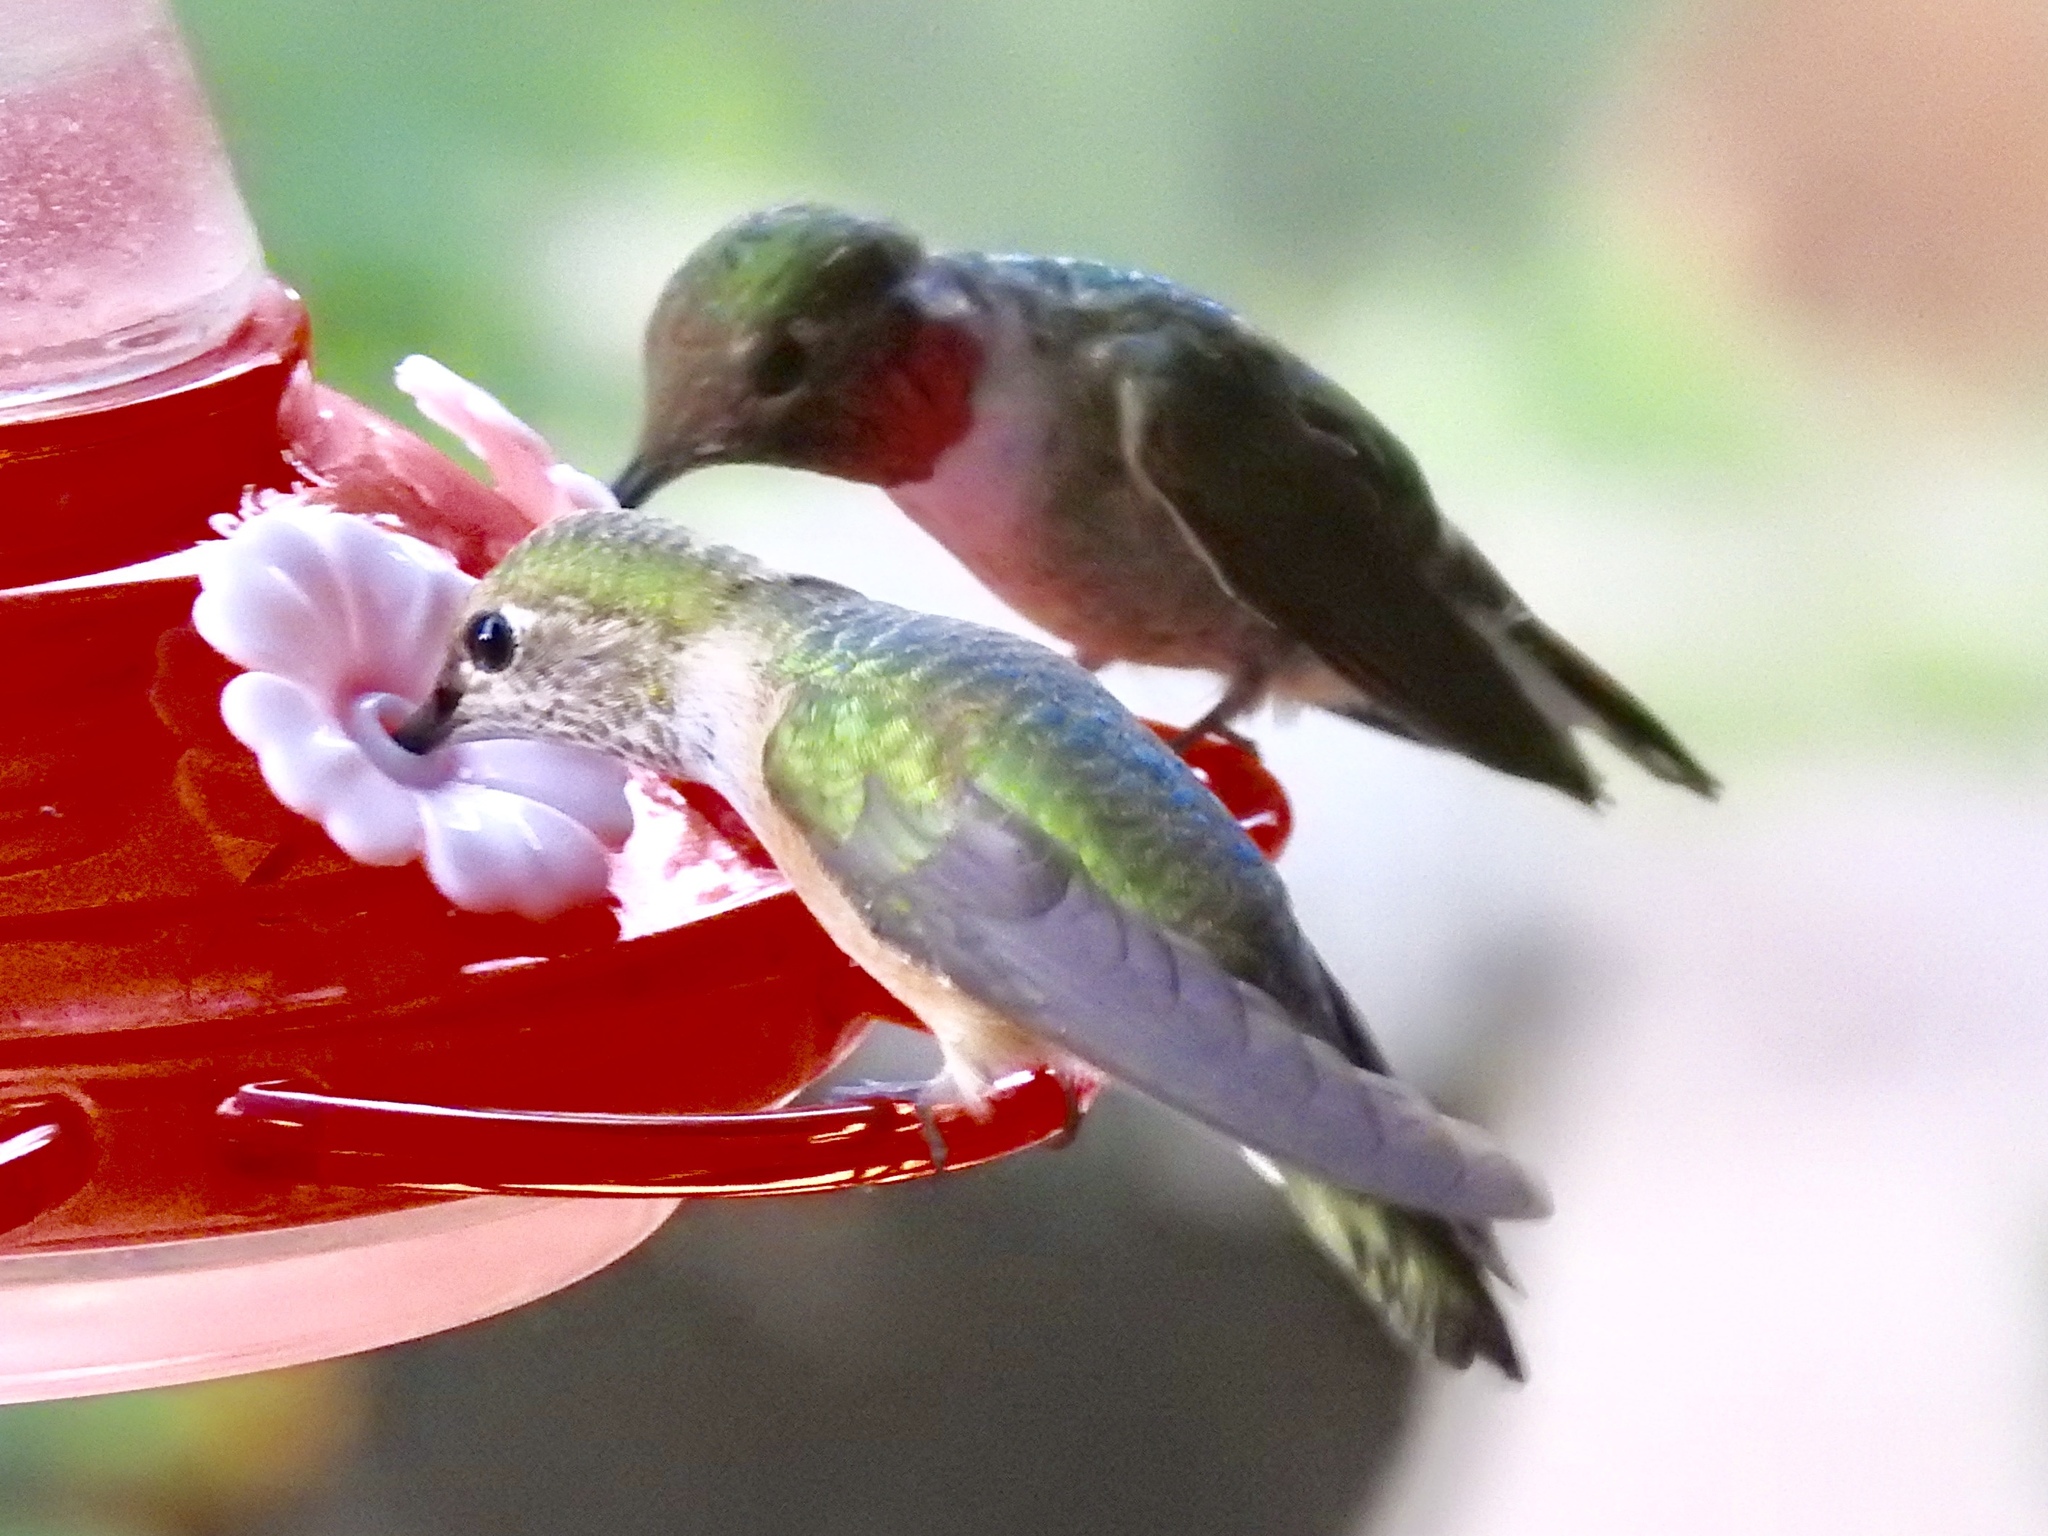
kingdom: Animalia
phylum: Chordata
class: Aves
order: Apodiformes
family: Trochilidae
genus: Selasphorus
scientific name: Selasphorus platycercus
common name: Broad-tailed hummingbird
